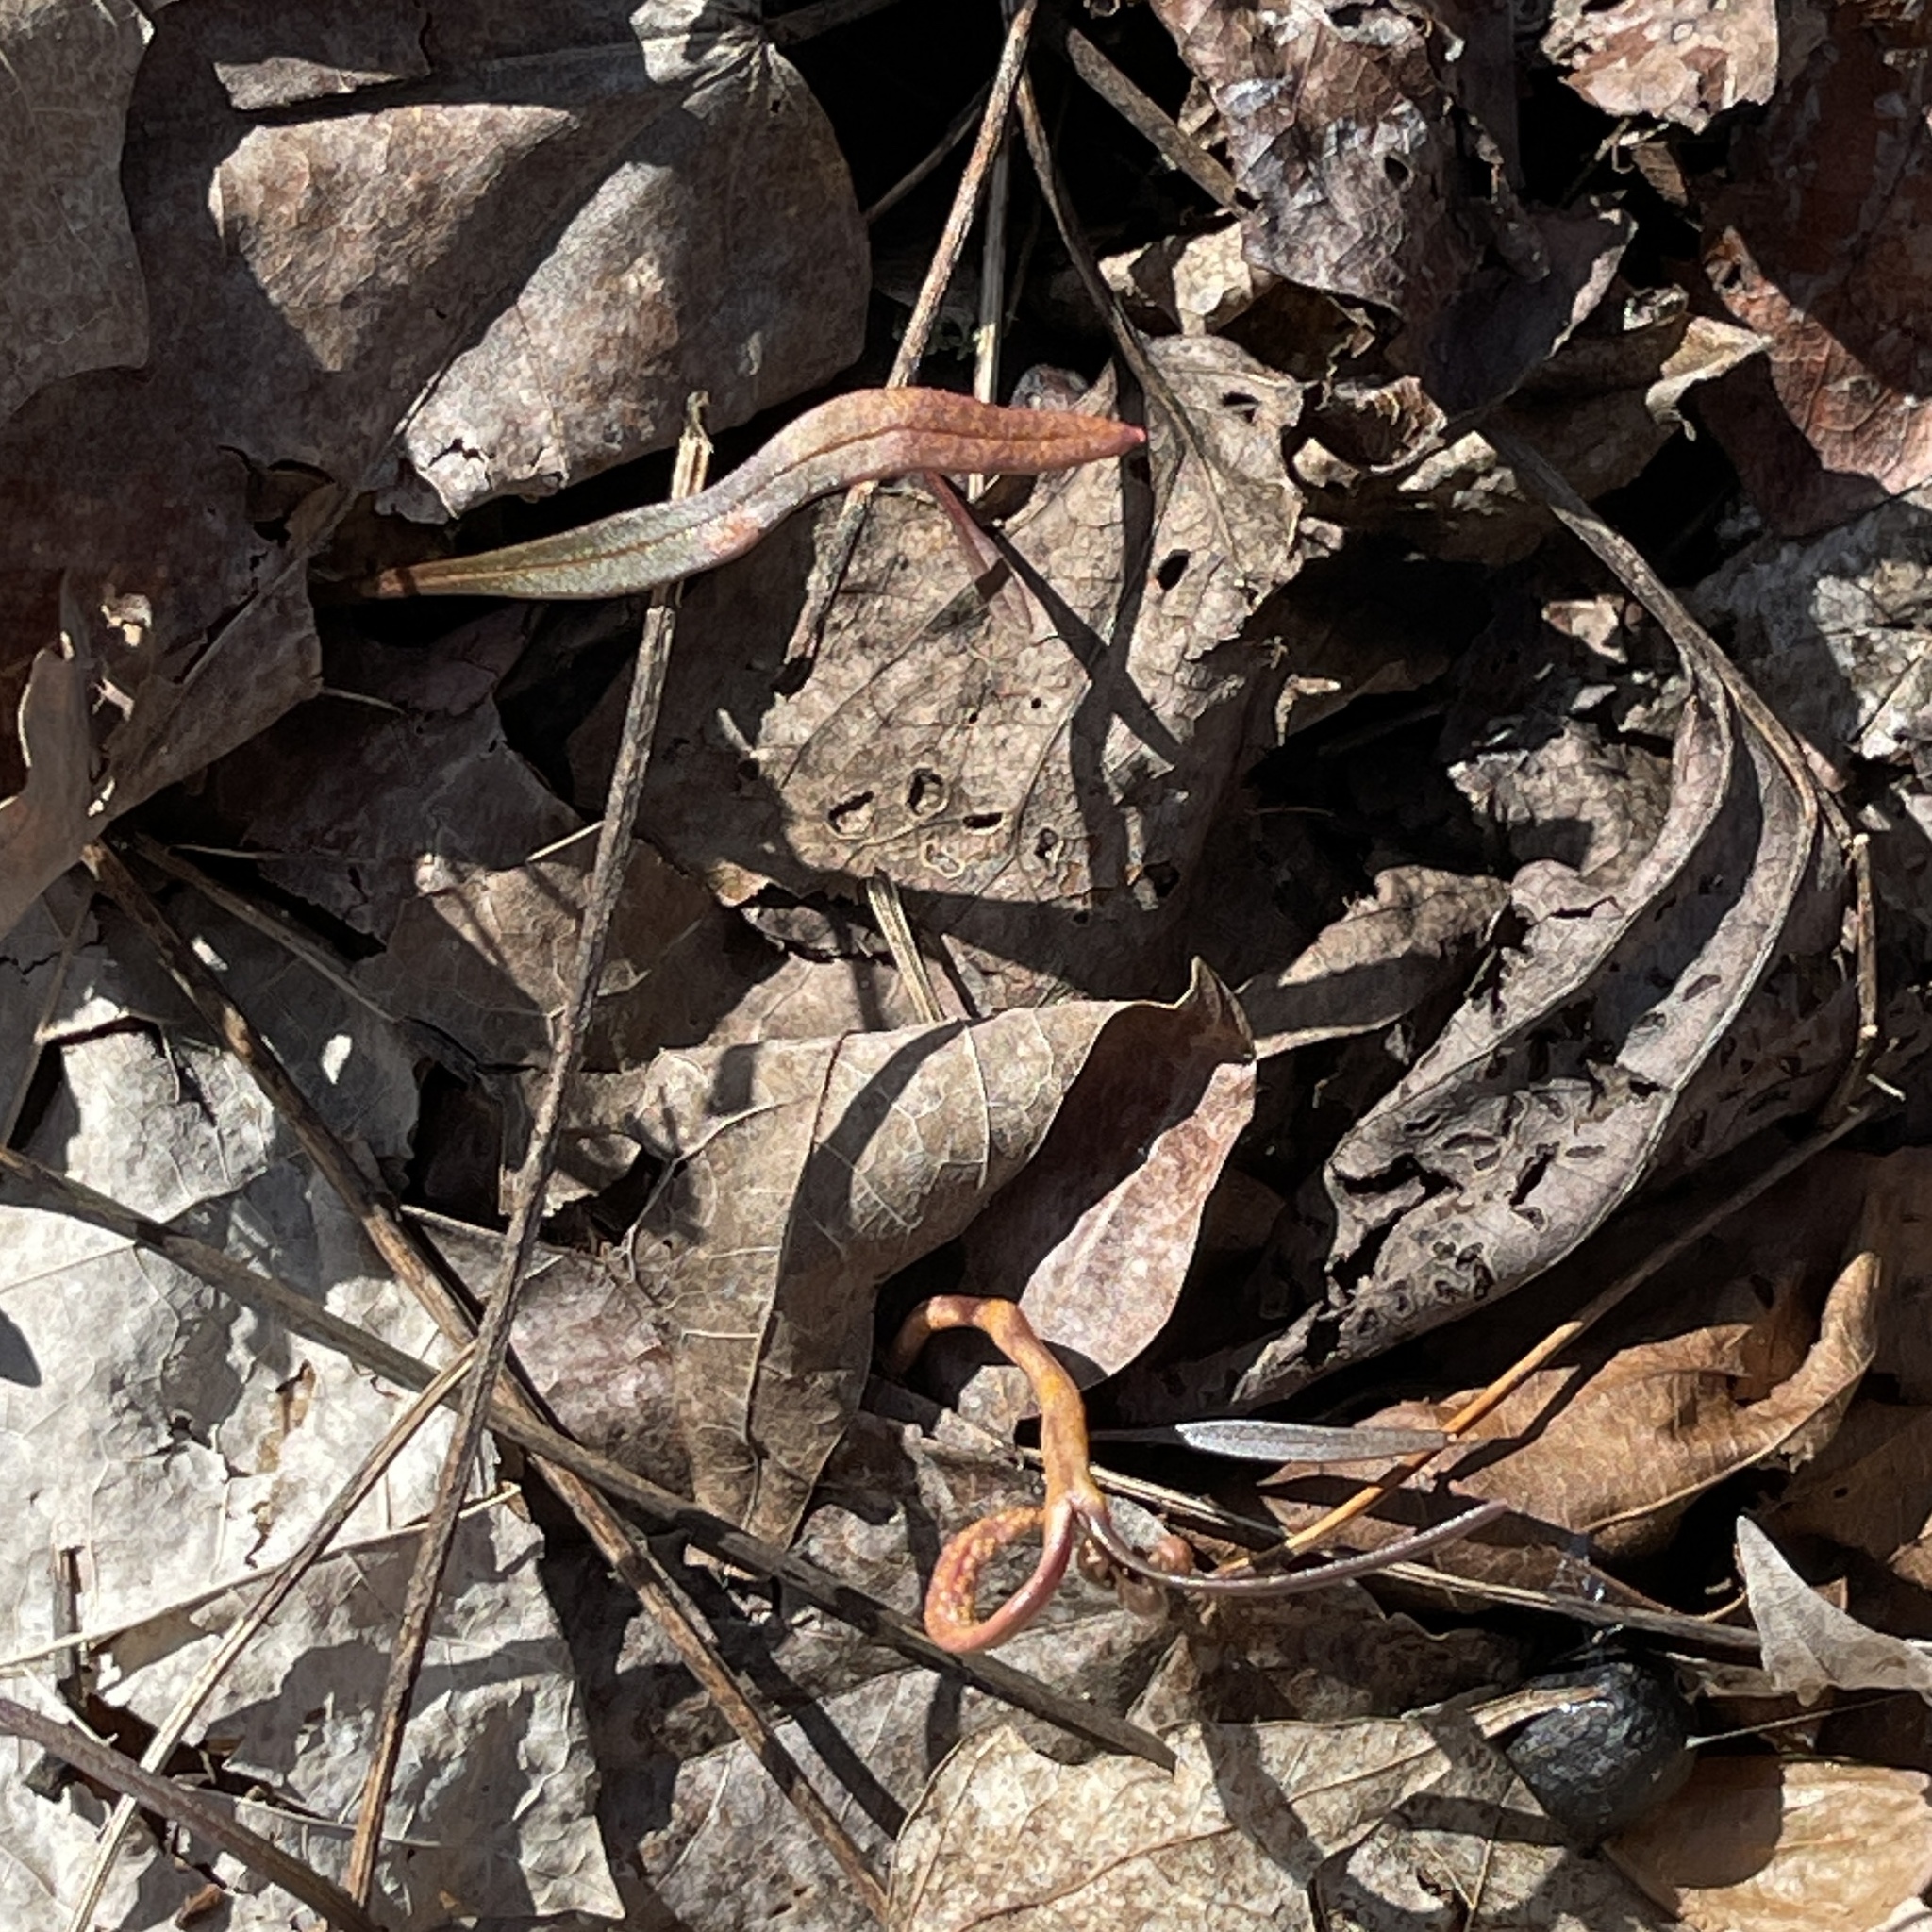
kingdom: Fungi
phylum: Basidiomycota
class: Pucciniomycetes
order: Pucciniales
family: Pucciniaceae
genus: Puccinia
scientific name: Puccinia mariae-wilsoniae
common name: Spring beauty rust
